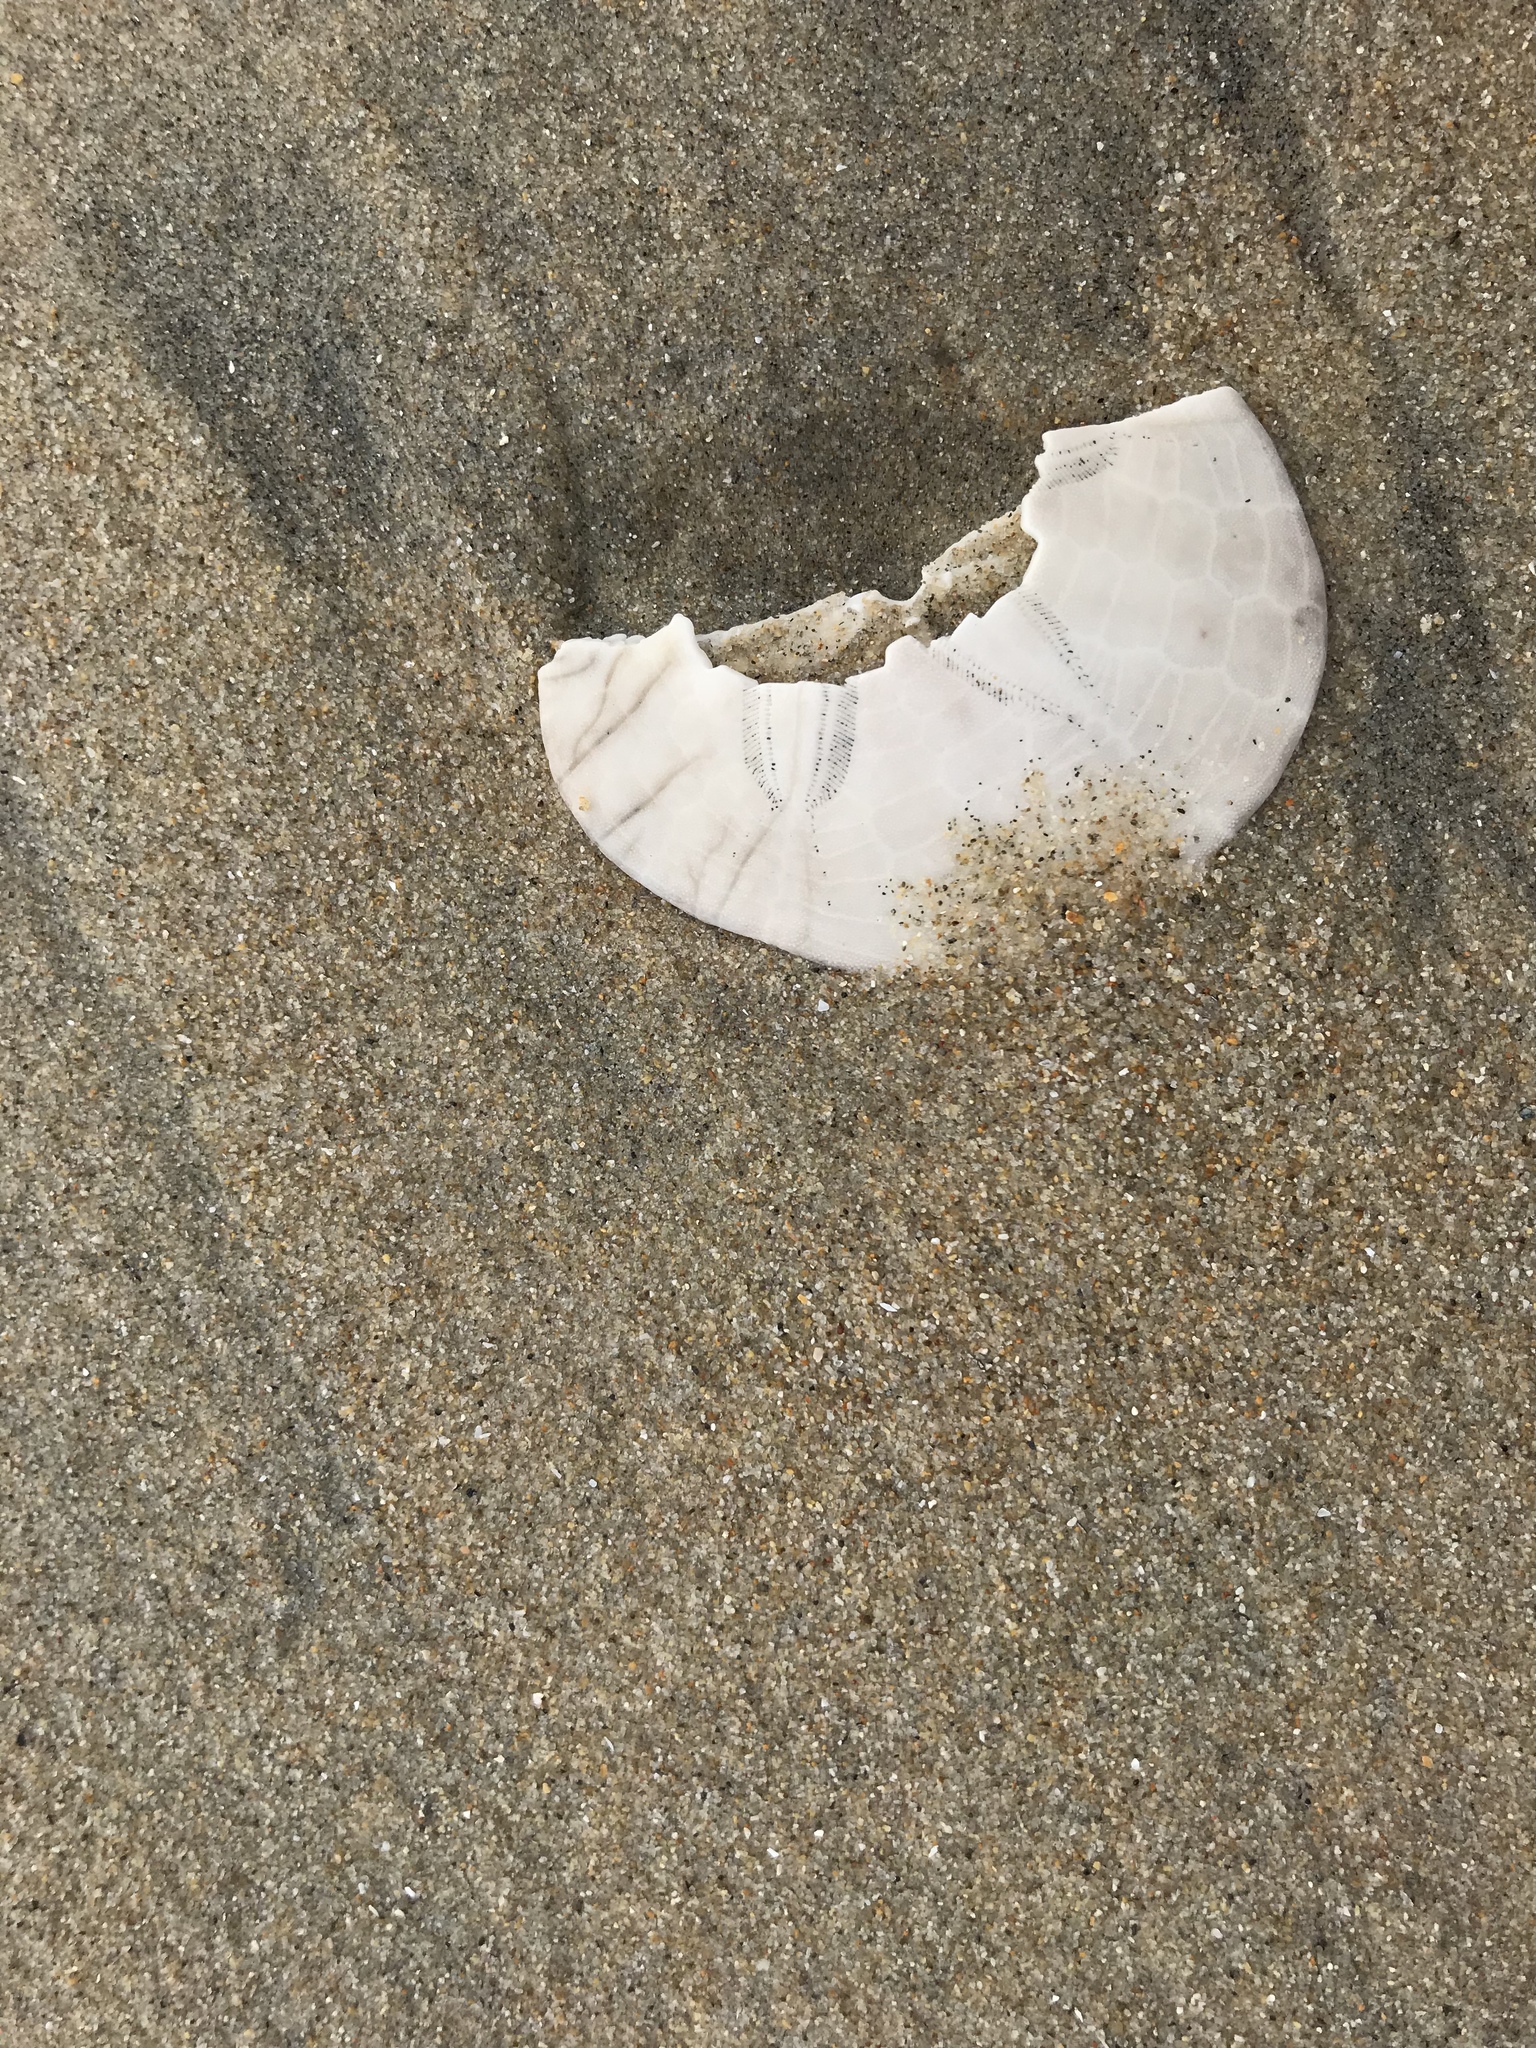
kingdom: Animalia
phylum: Echinodermata
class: Echinoidea
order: Echinolampadacea
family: Dendrasteridae
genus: Dendraster
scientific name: Dendraster excentricus
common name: Eccentric sand dollar sea urchin
